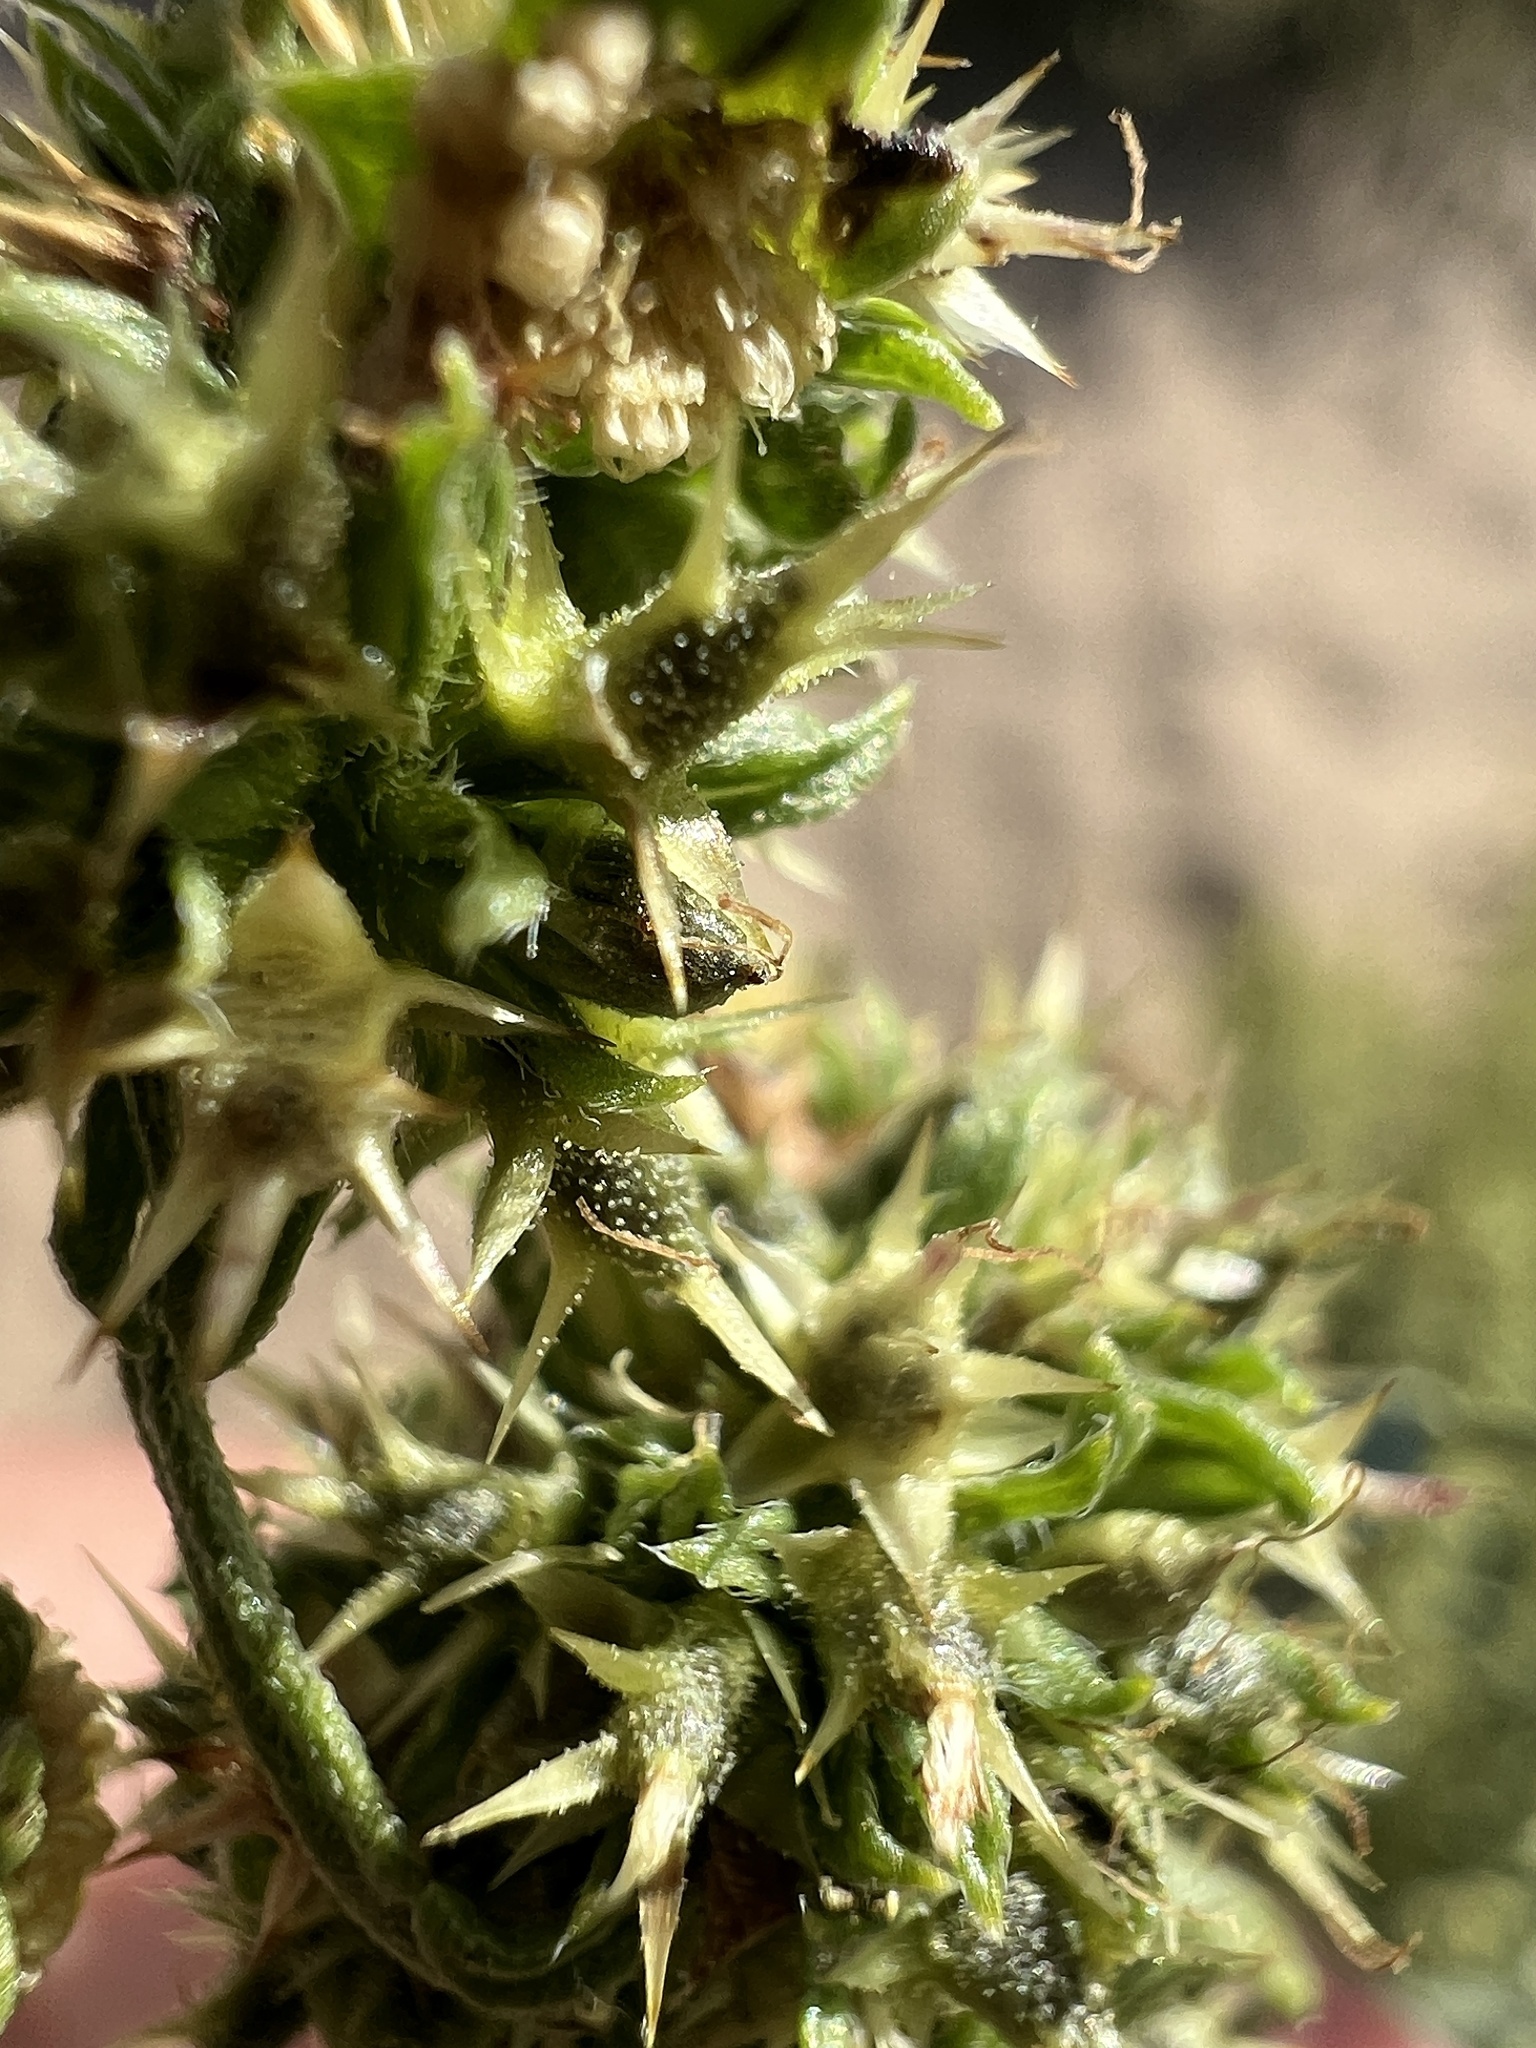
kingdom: Plantae
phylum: Tracheophyta
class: Magnoliopsida
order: Asterales
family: Asteraceae
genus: Ambrosia
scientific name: Ambrosia acanthicarpa
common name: Hooker's bur ragweed
